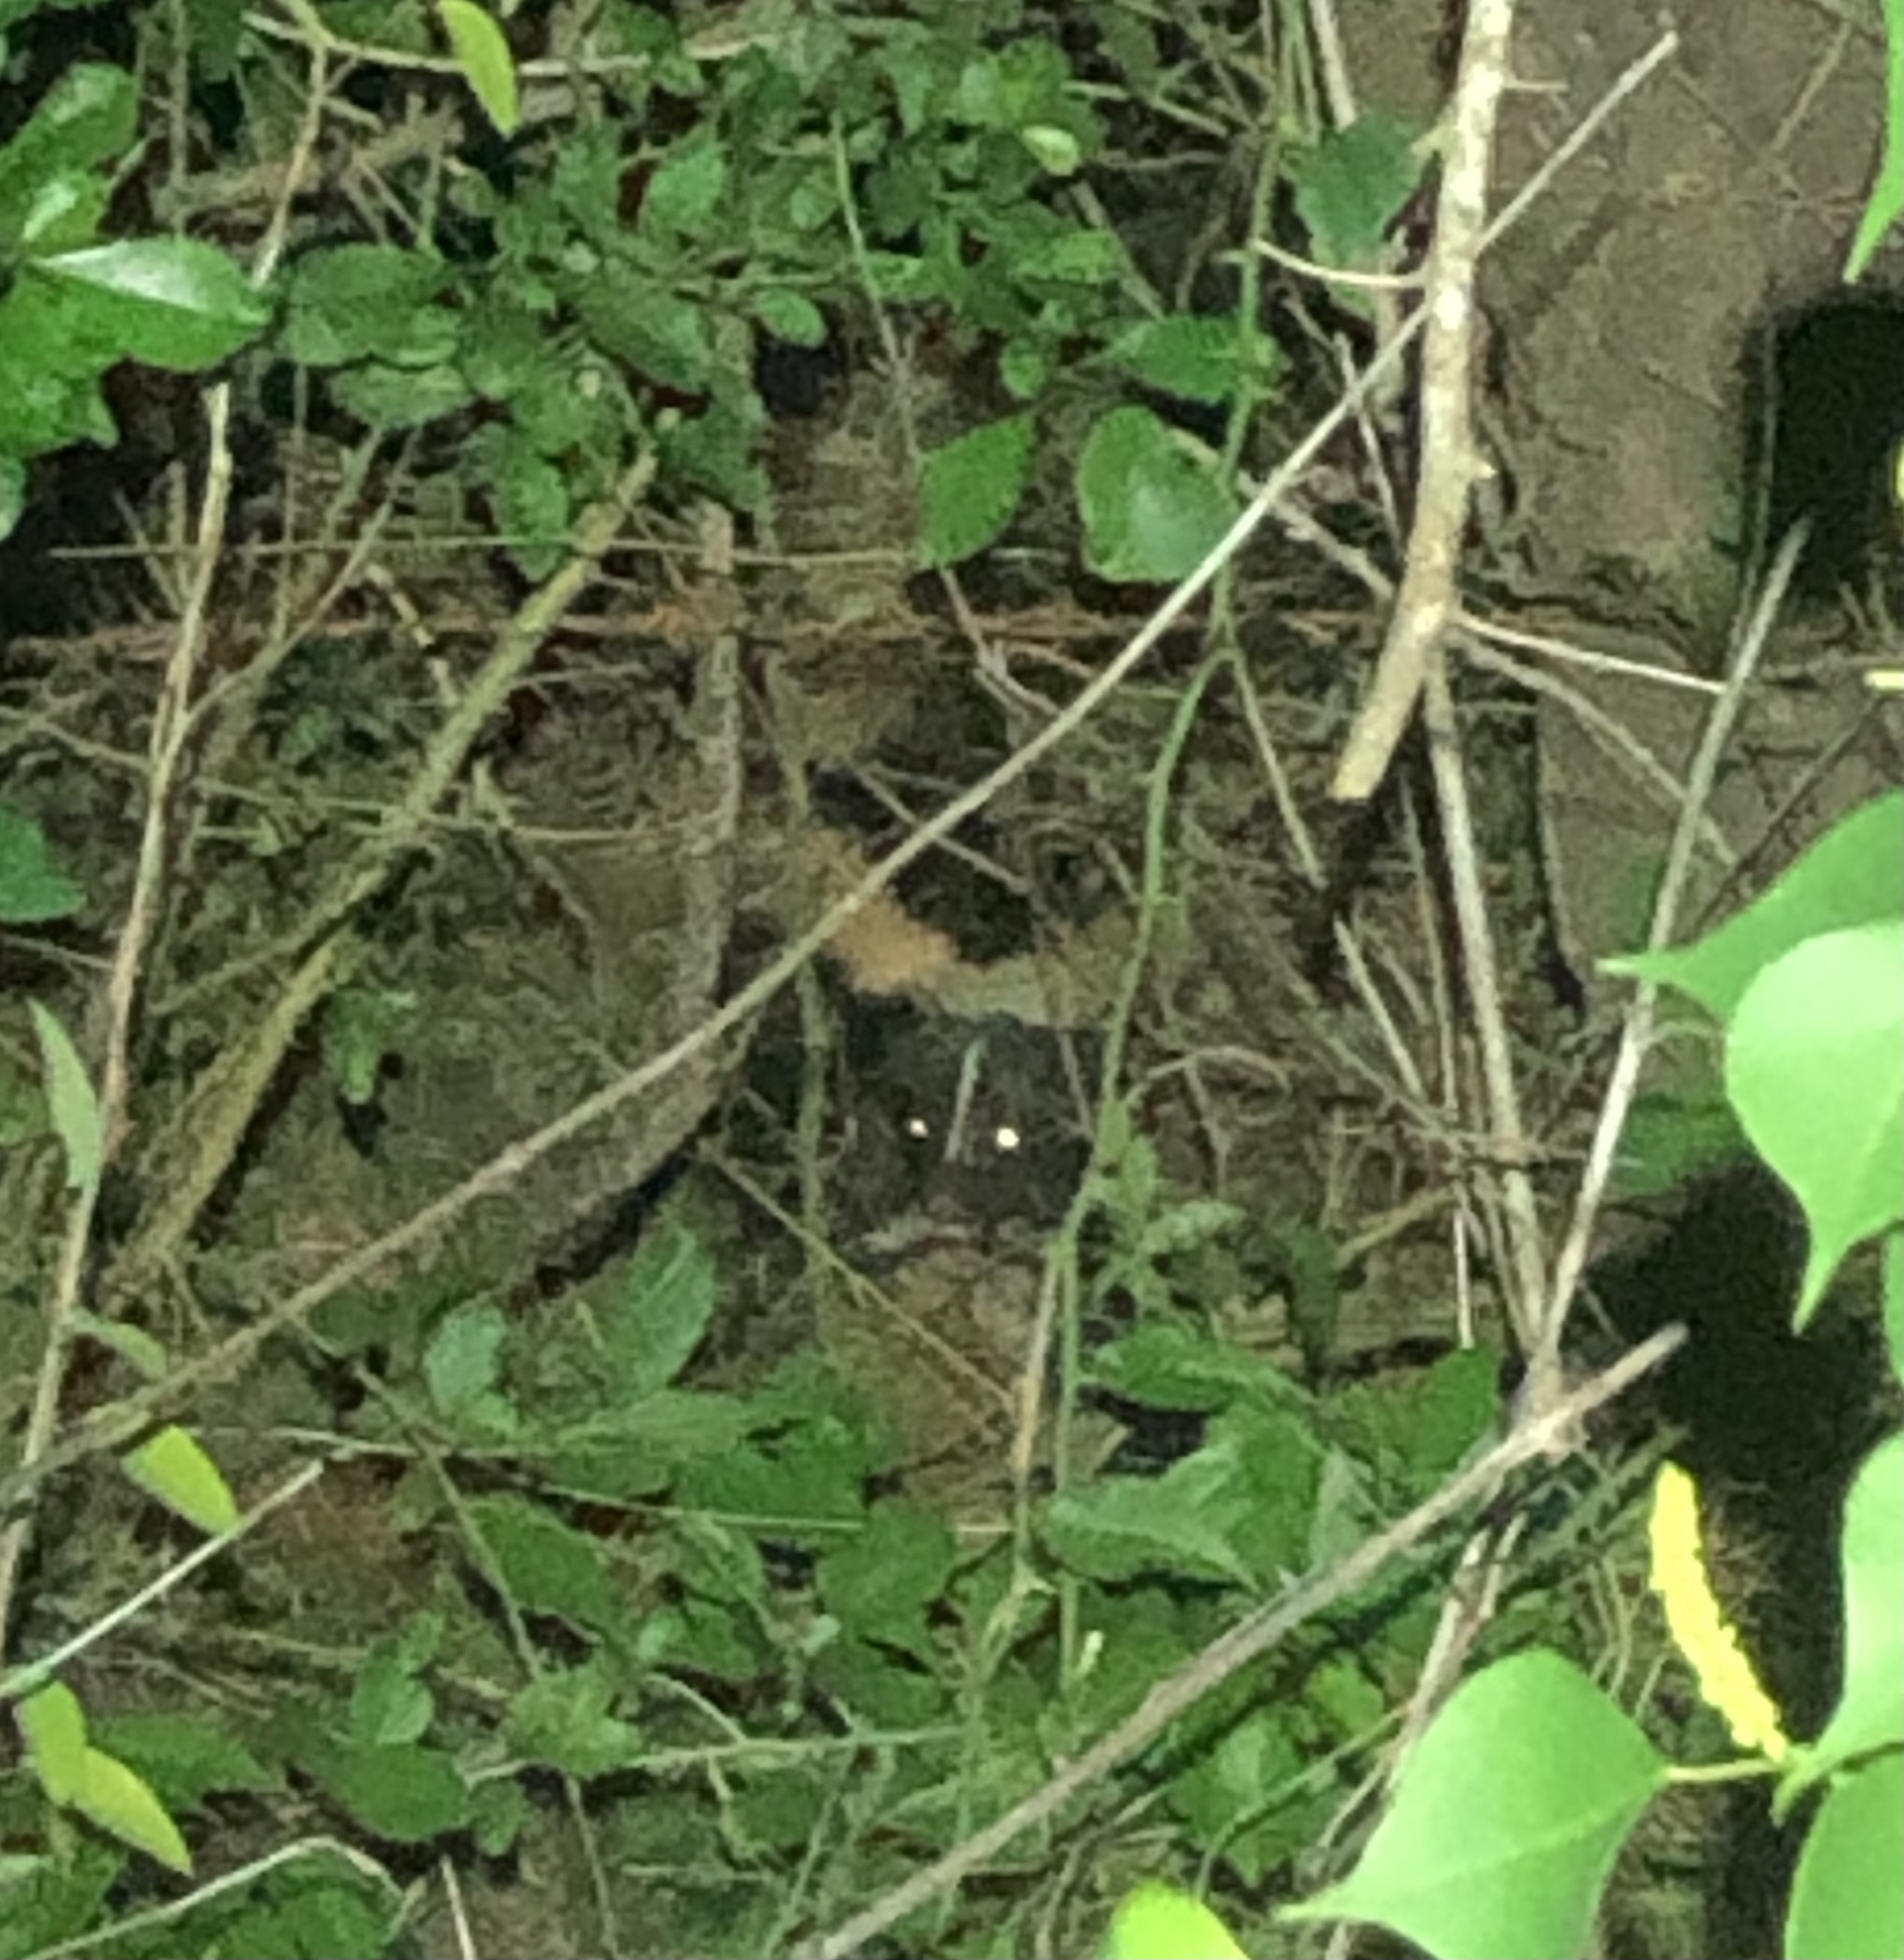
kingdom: Animalia
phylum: Chordata
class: Mammalia
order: Carnivora
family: Mephitidae
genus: Mephitis
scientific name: Mephitis mephitis
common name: Striped skunk
